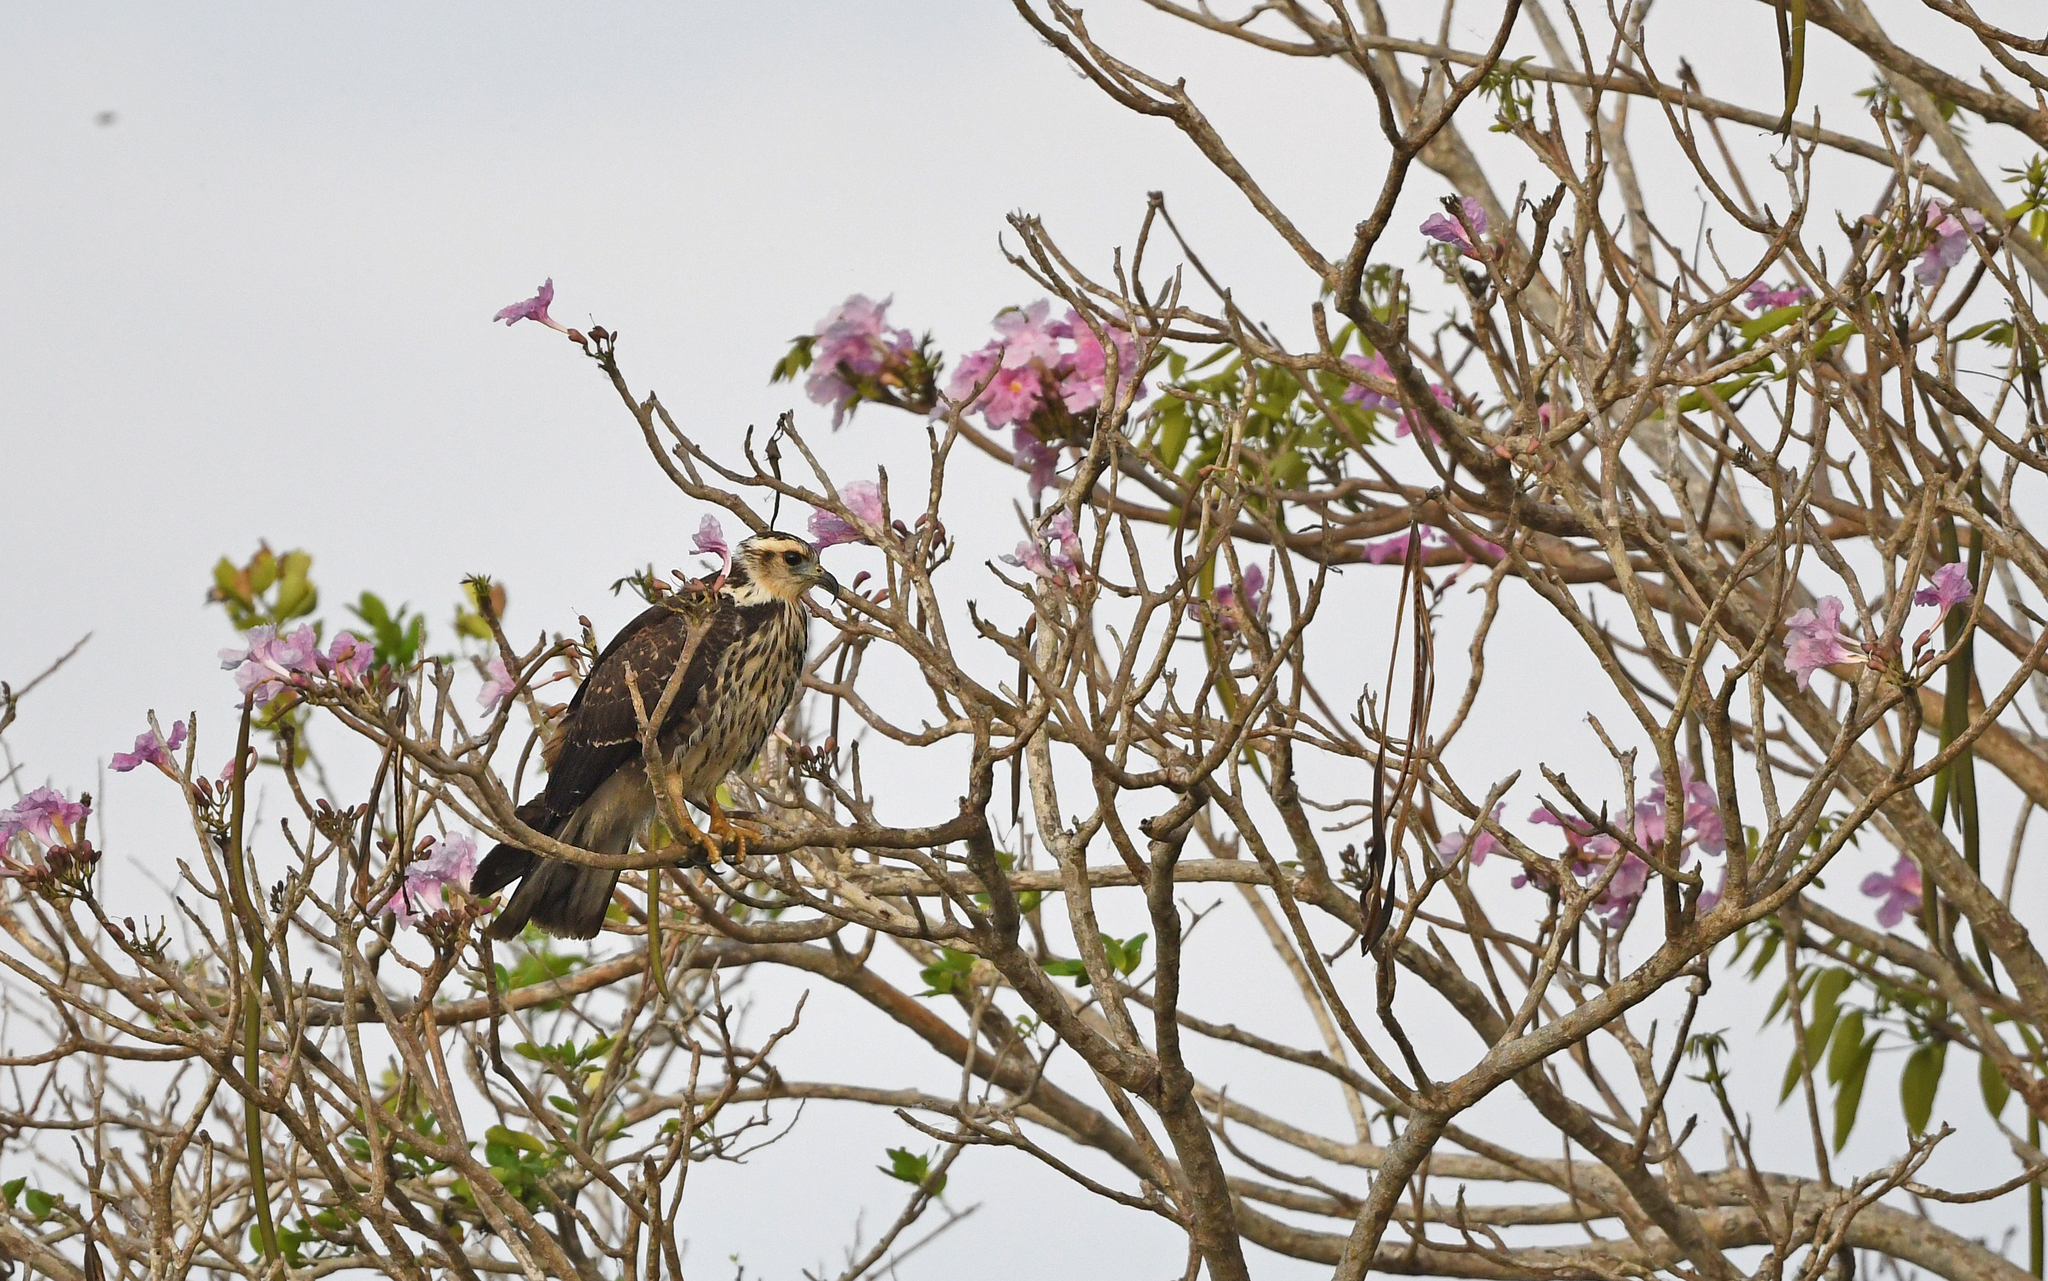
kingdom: Animalia
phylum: Chordata
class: Aves
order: Accipitriformes
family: Accipitridae
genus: Rostrhamus
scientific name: Rostrhamus sociabilis
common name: Snail kite
